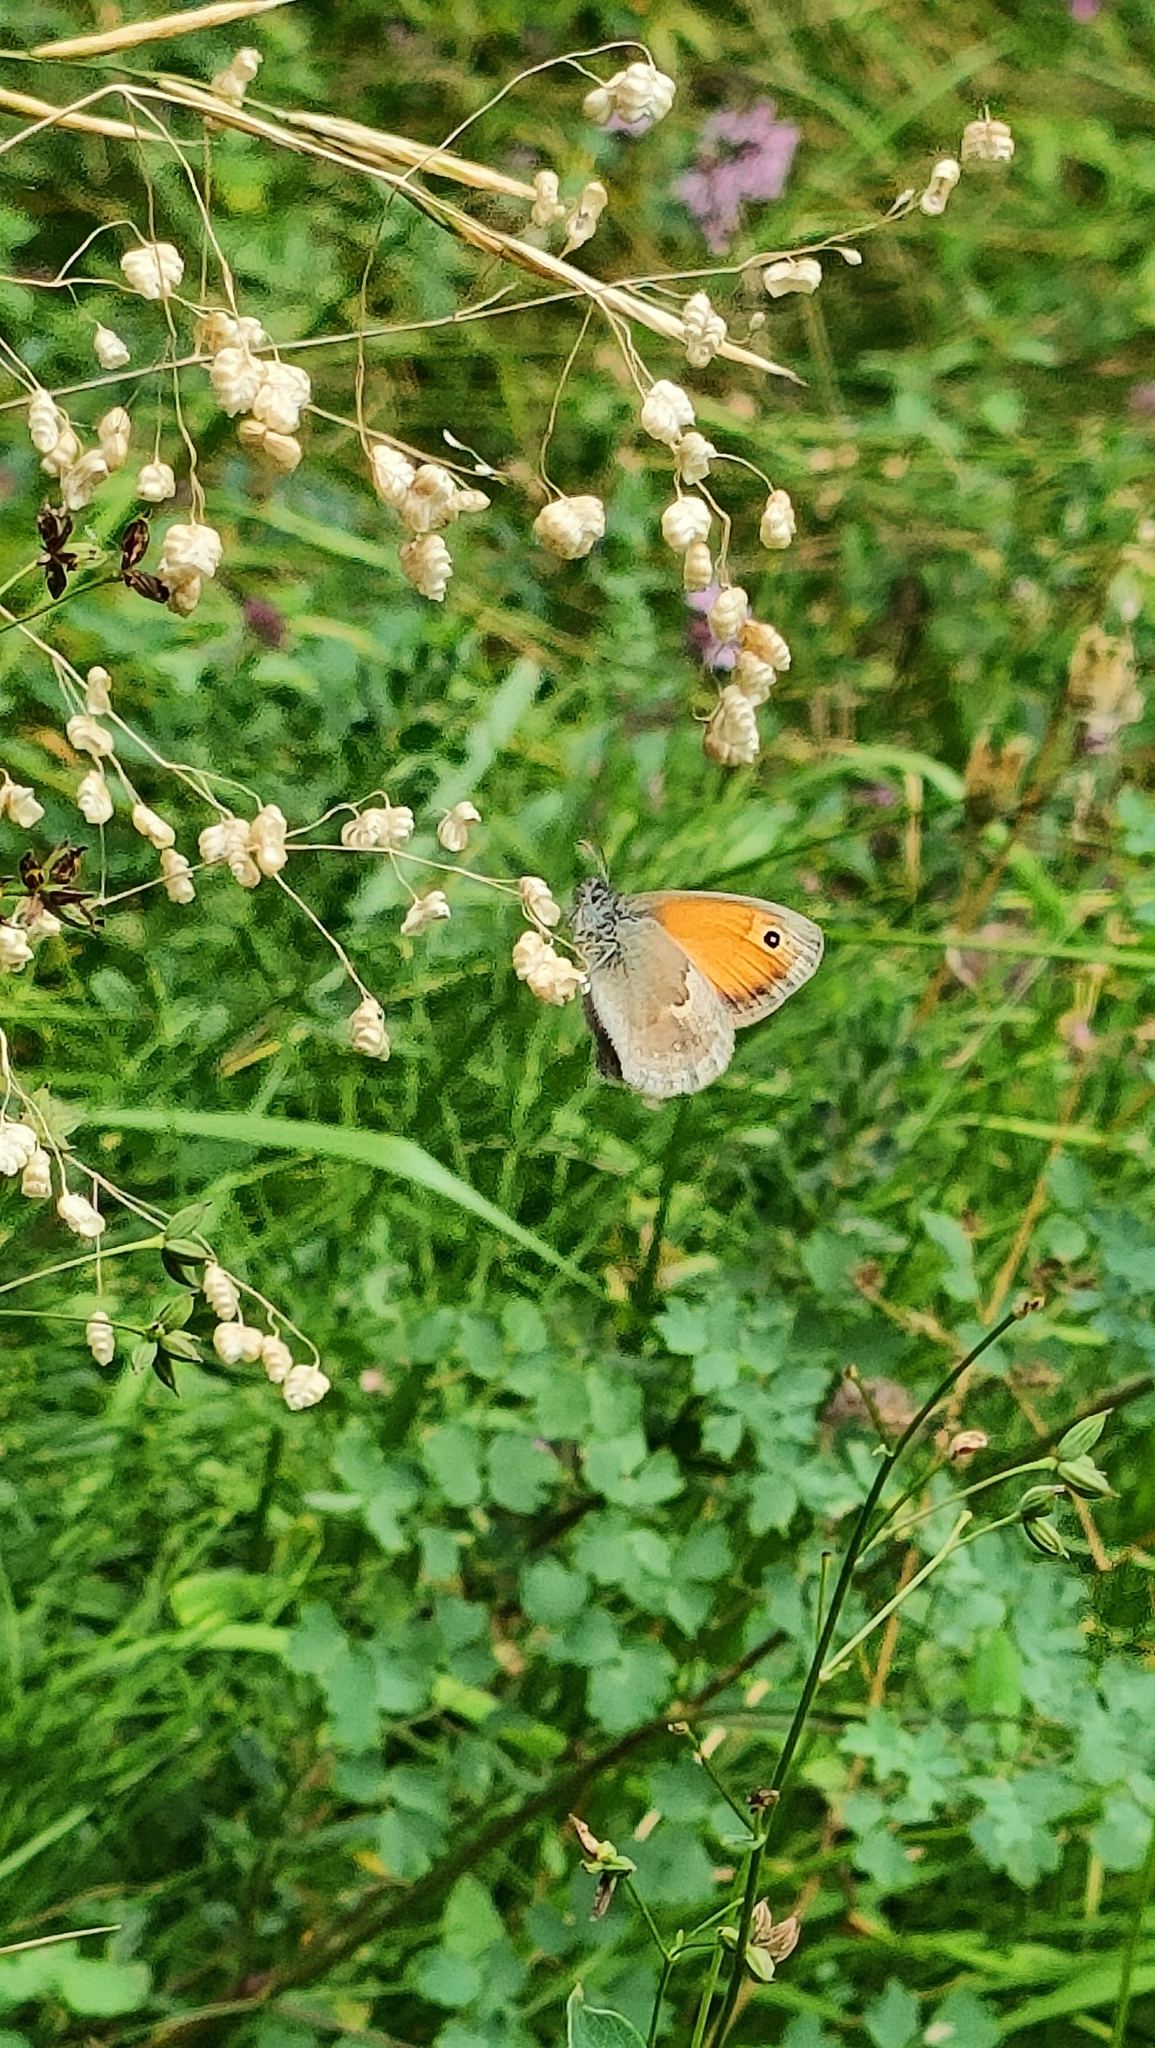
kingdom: Animalia
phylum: Arthropoda
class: Insecta
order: Lepidoptera
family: Nymphalidae
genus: Coenonympha
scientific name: Coenonympha pamphilus
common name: Small heath
